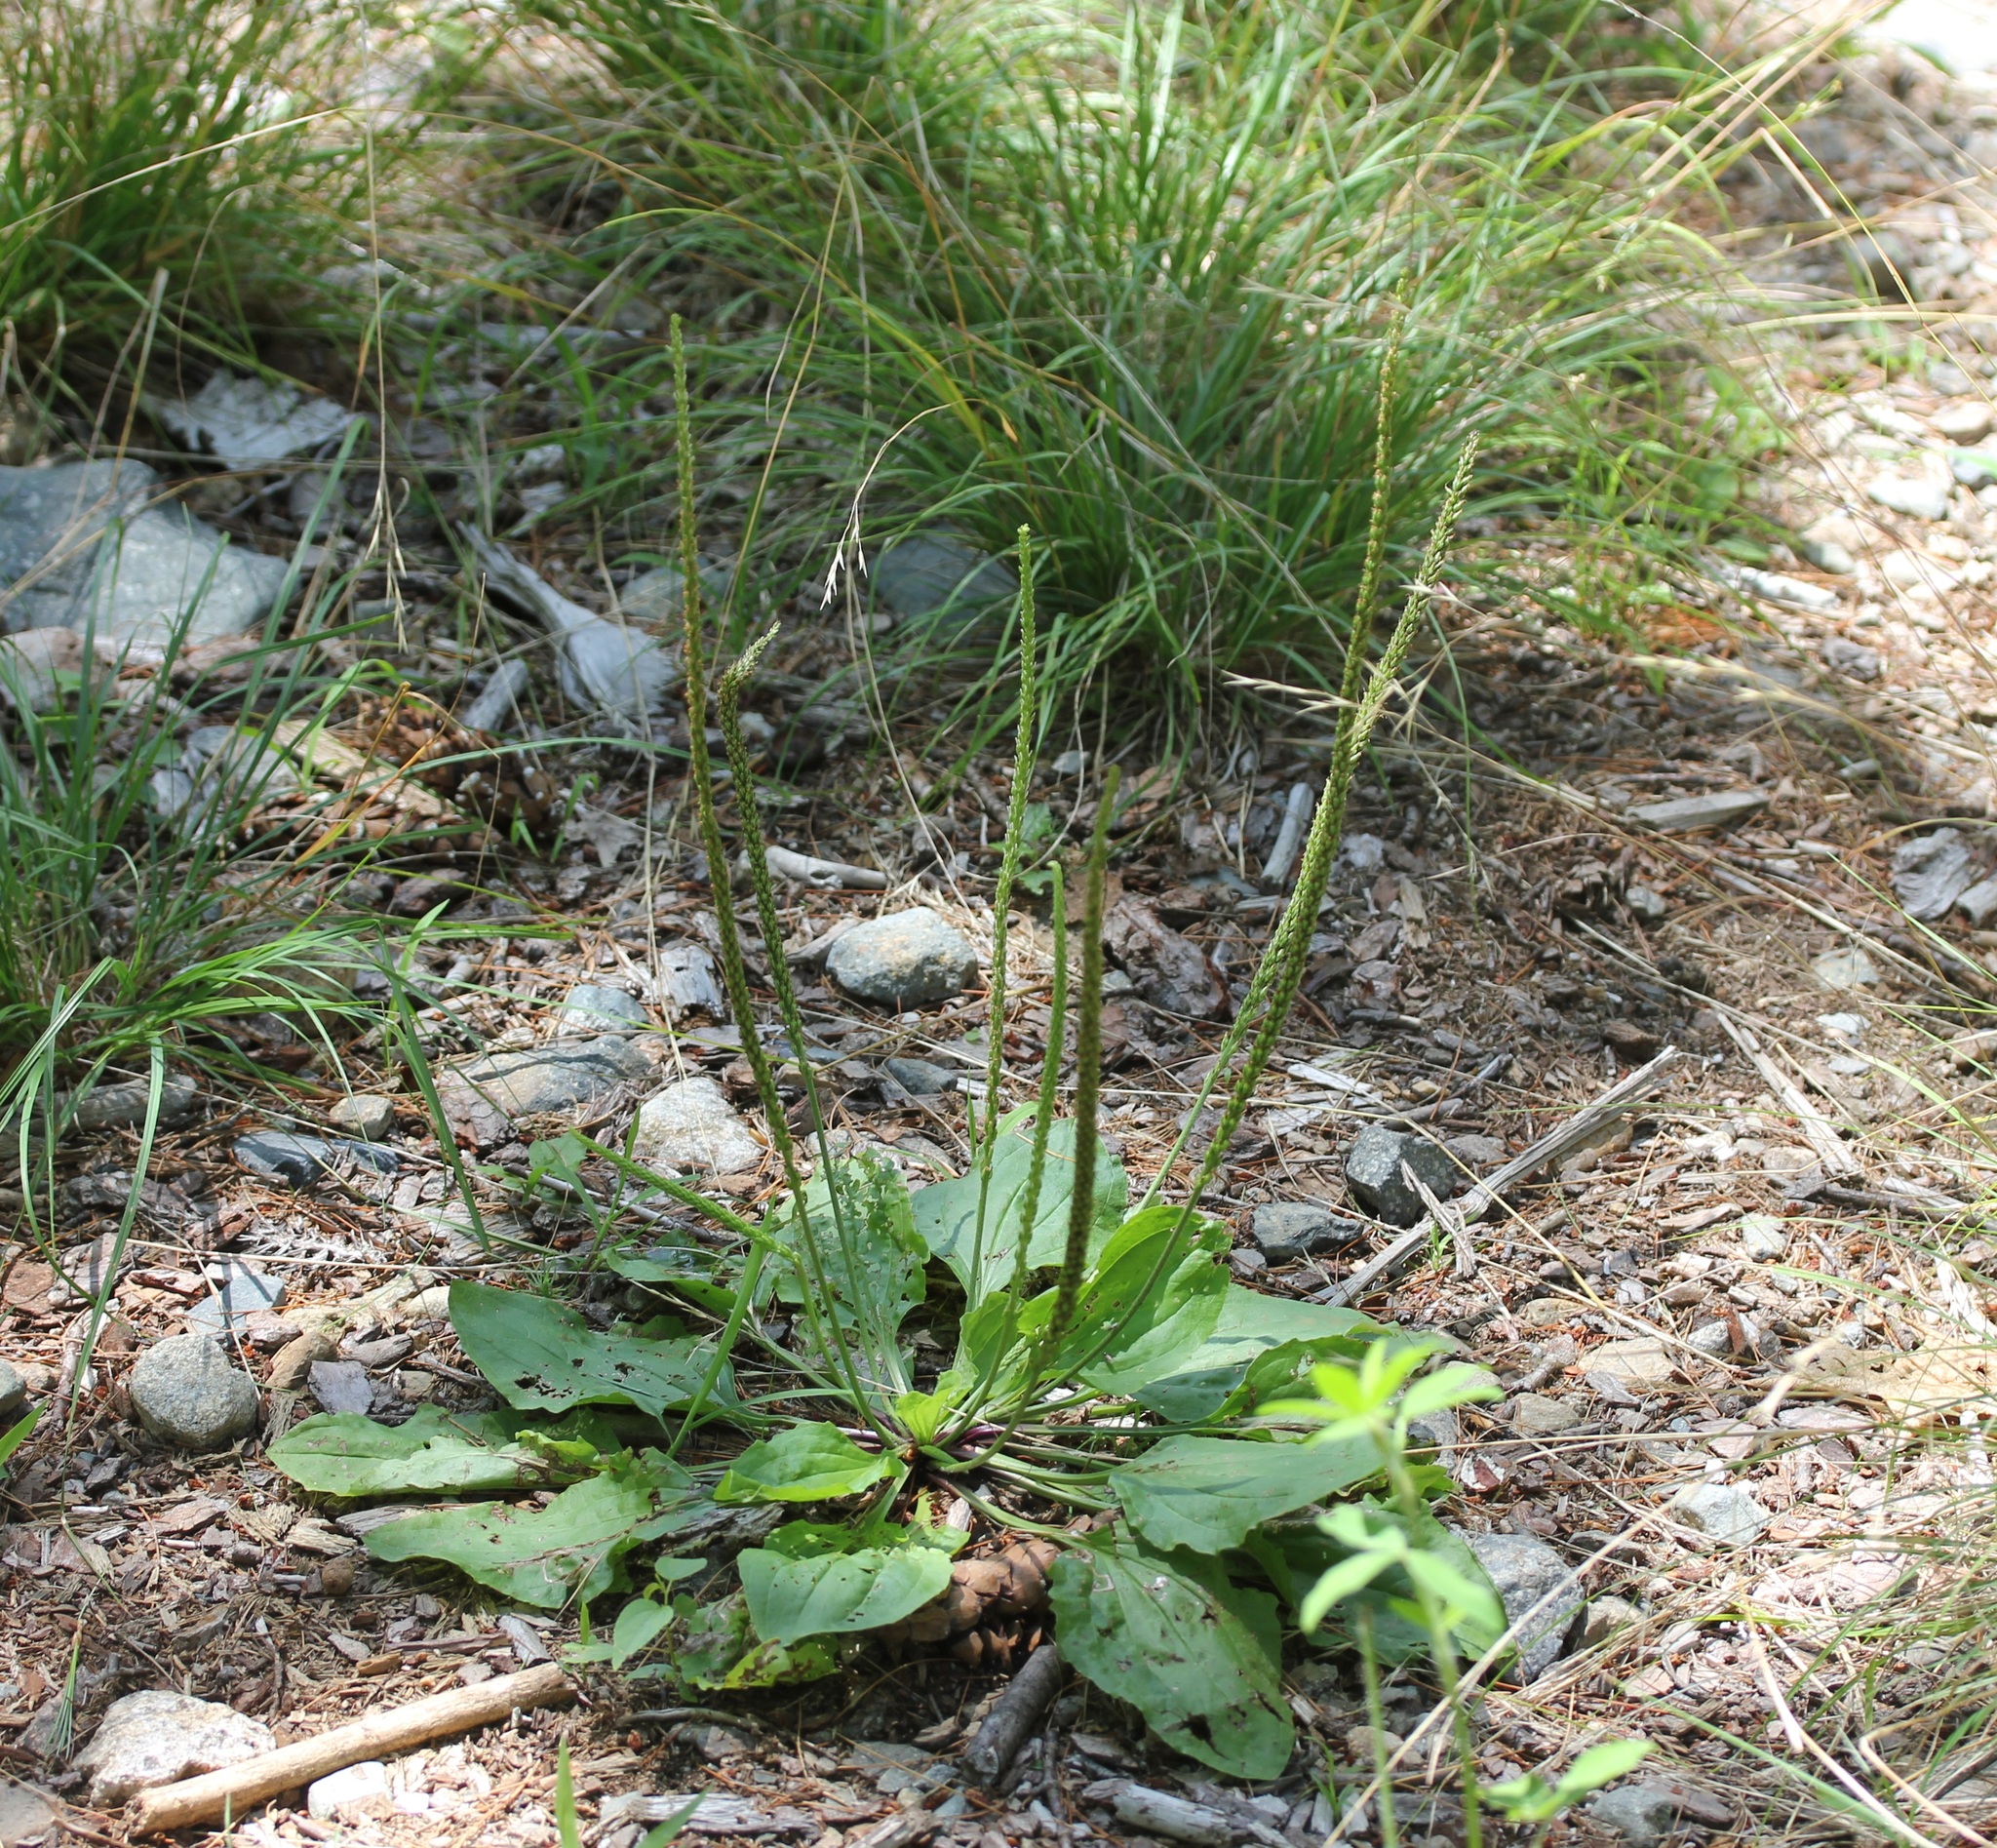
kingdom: Plantae
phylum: Tracheophyta
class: Magnoliopsida
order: Lamiales
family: Plantaginaceae
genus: Plantago
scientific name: Plantago rugelii
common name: American plantain
